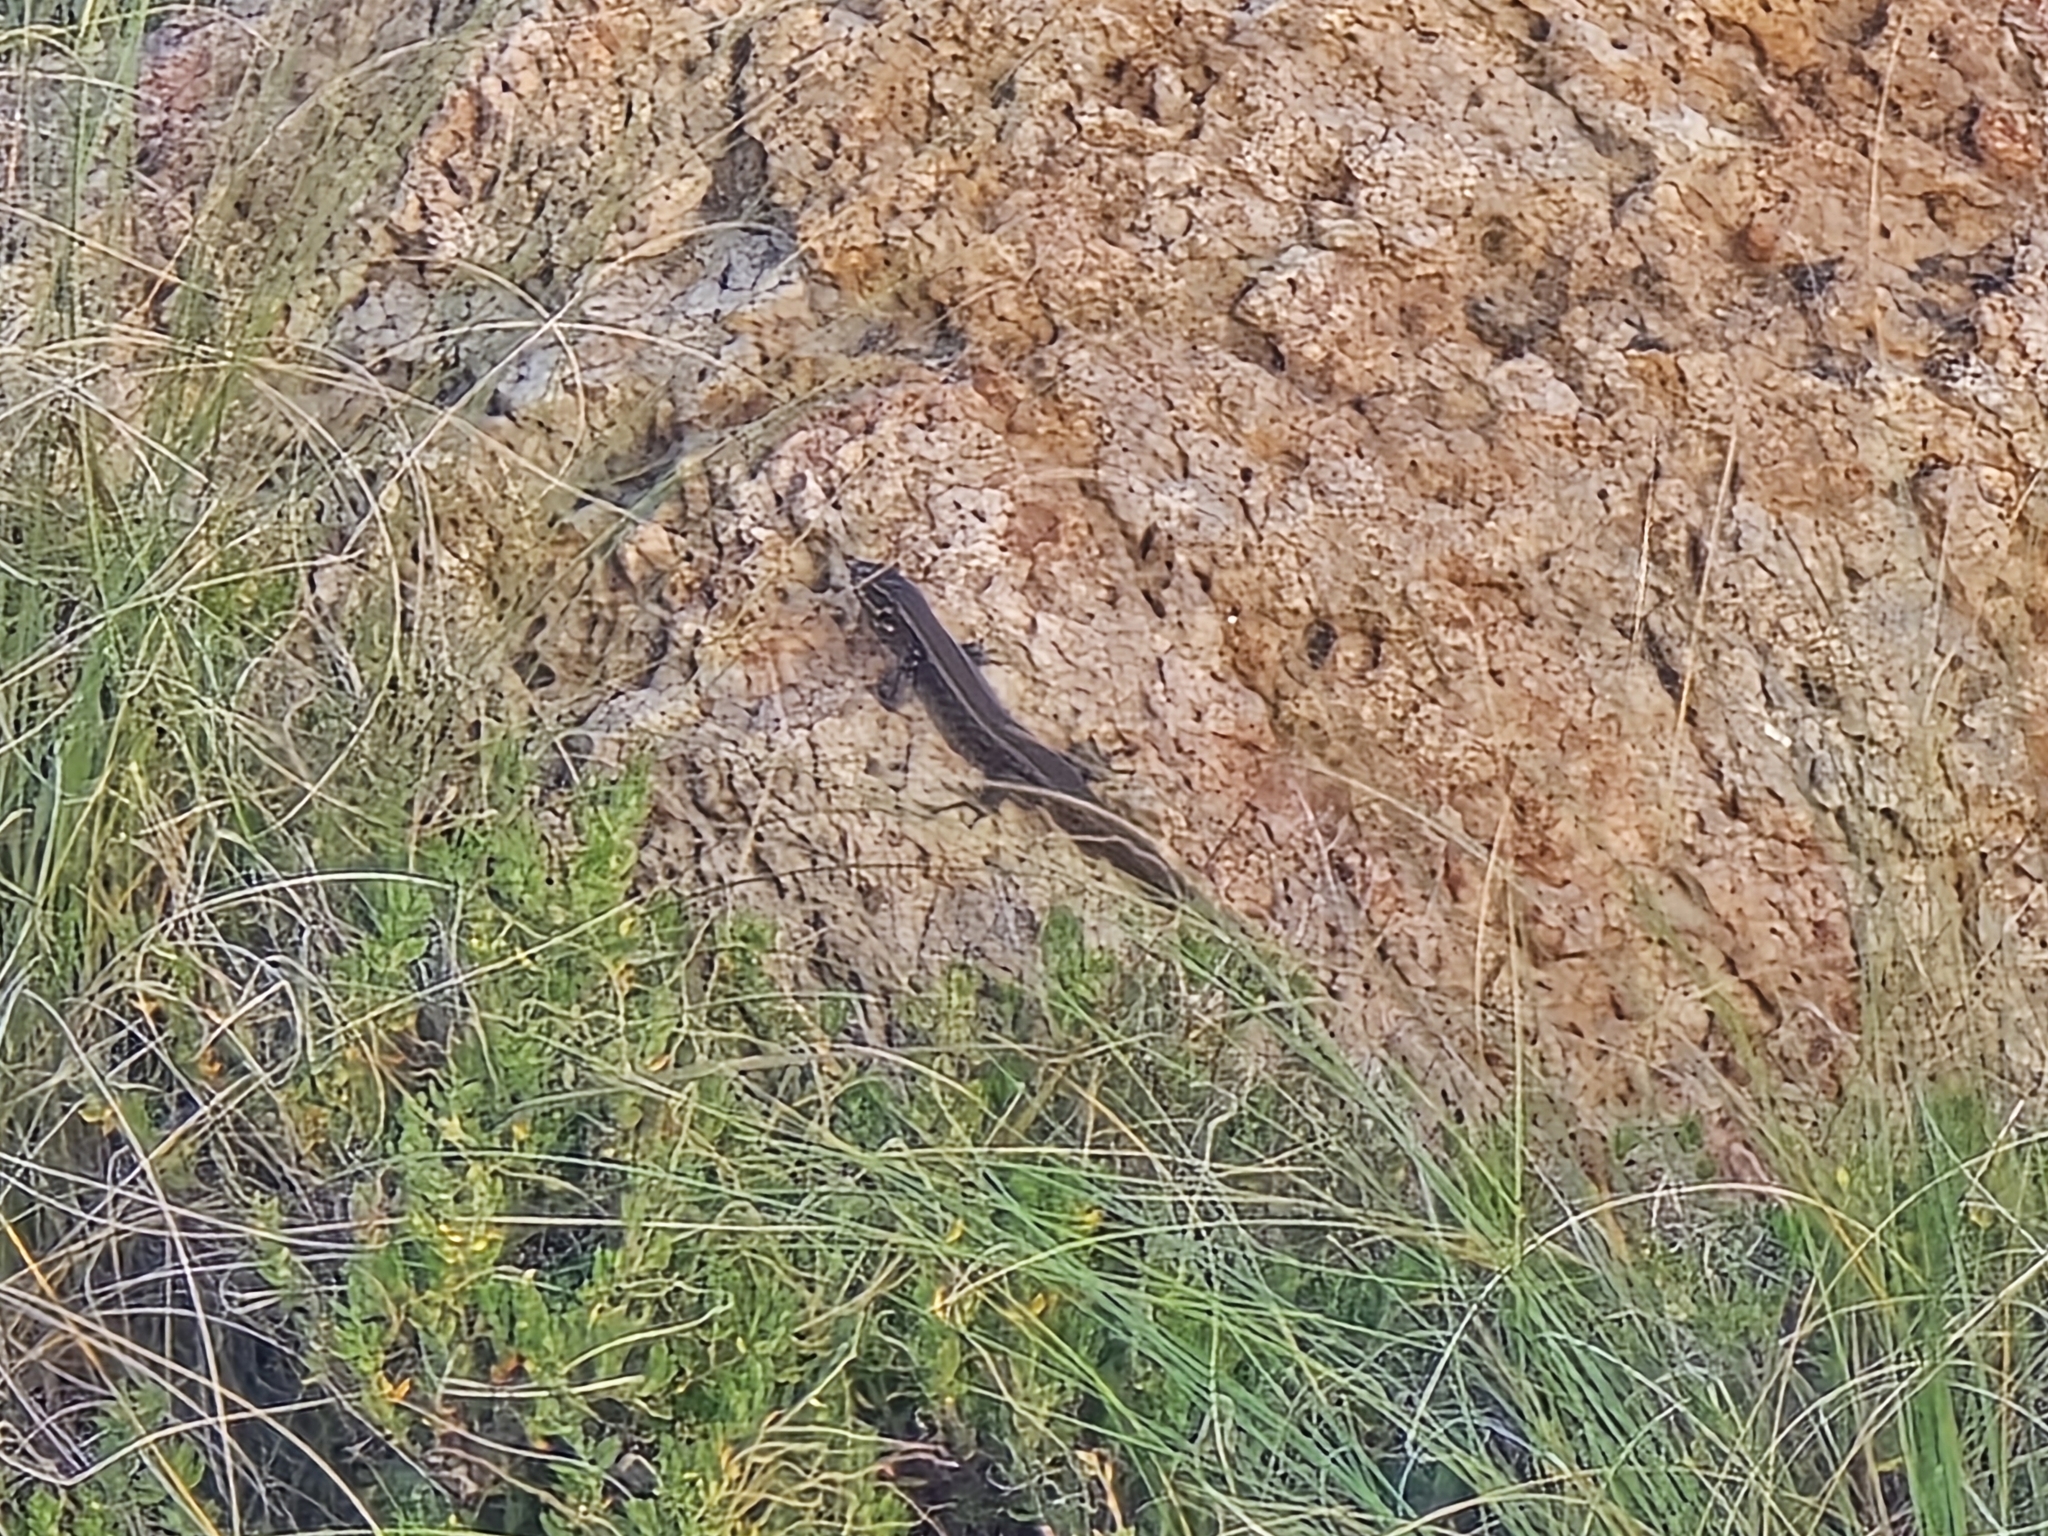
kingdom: Animalia
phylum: Chordata
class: Squamata
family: Scincidae
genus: Liopholis
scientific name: Liopholis whitii
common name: White's rock-skink
